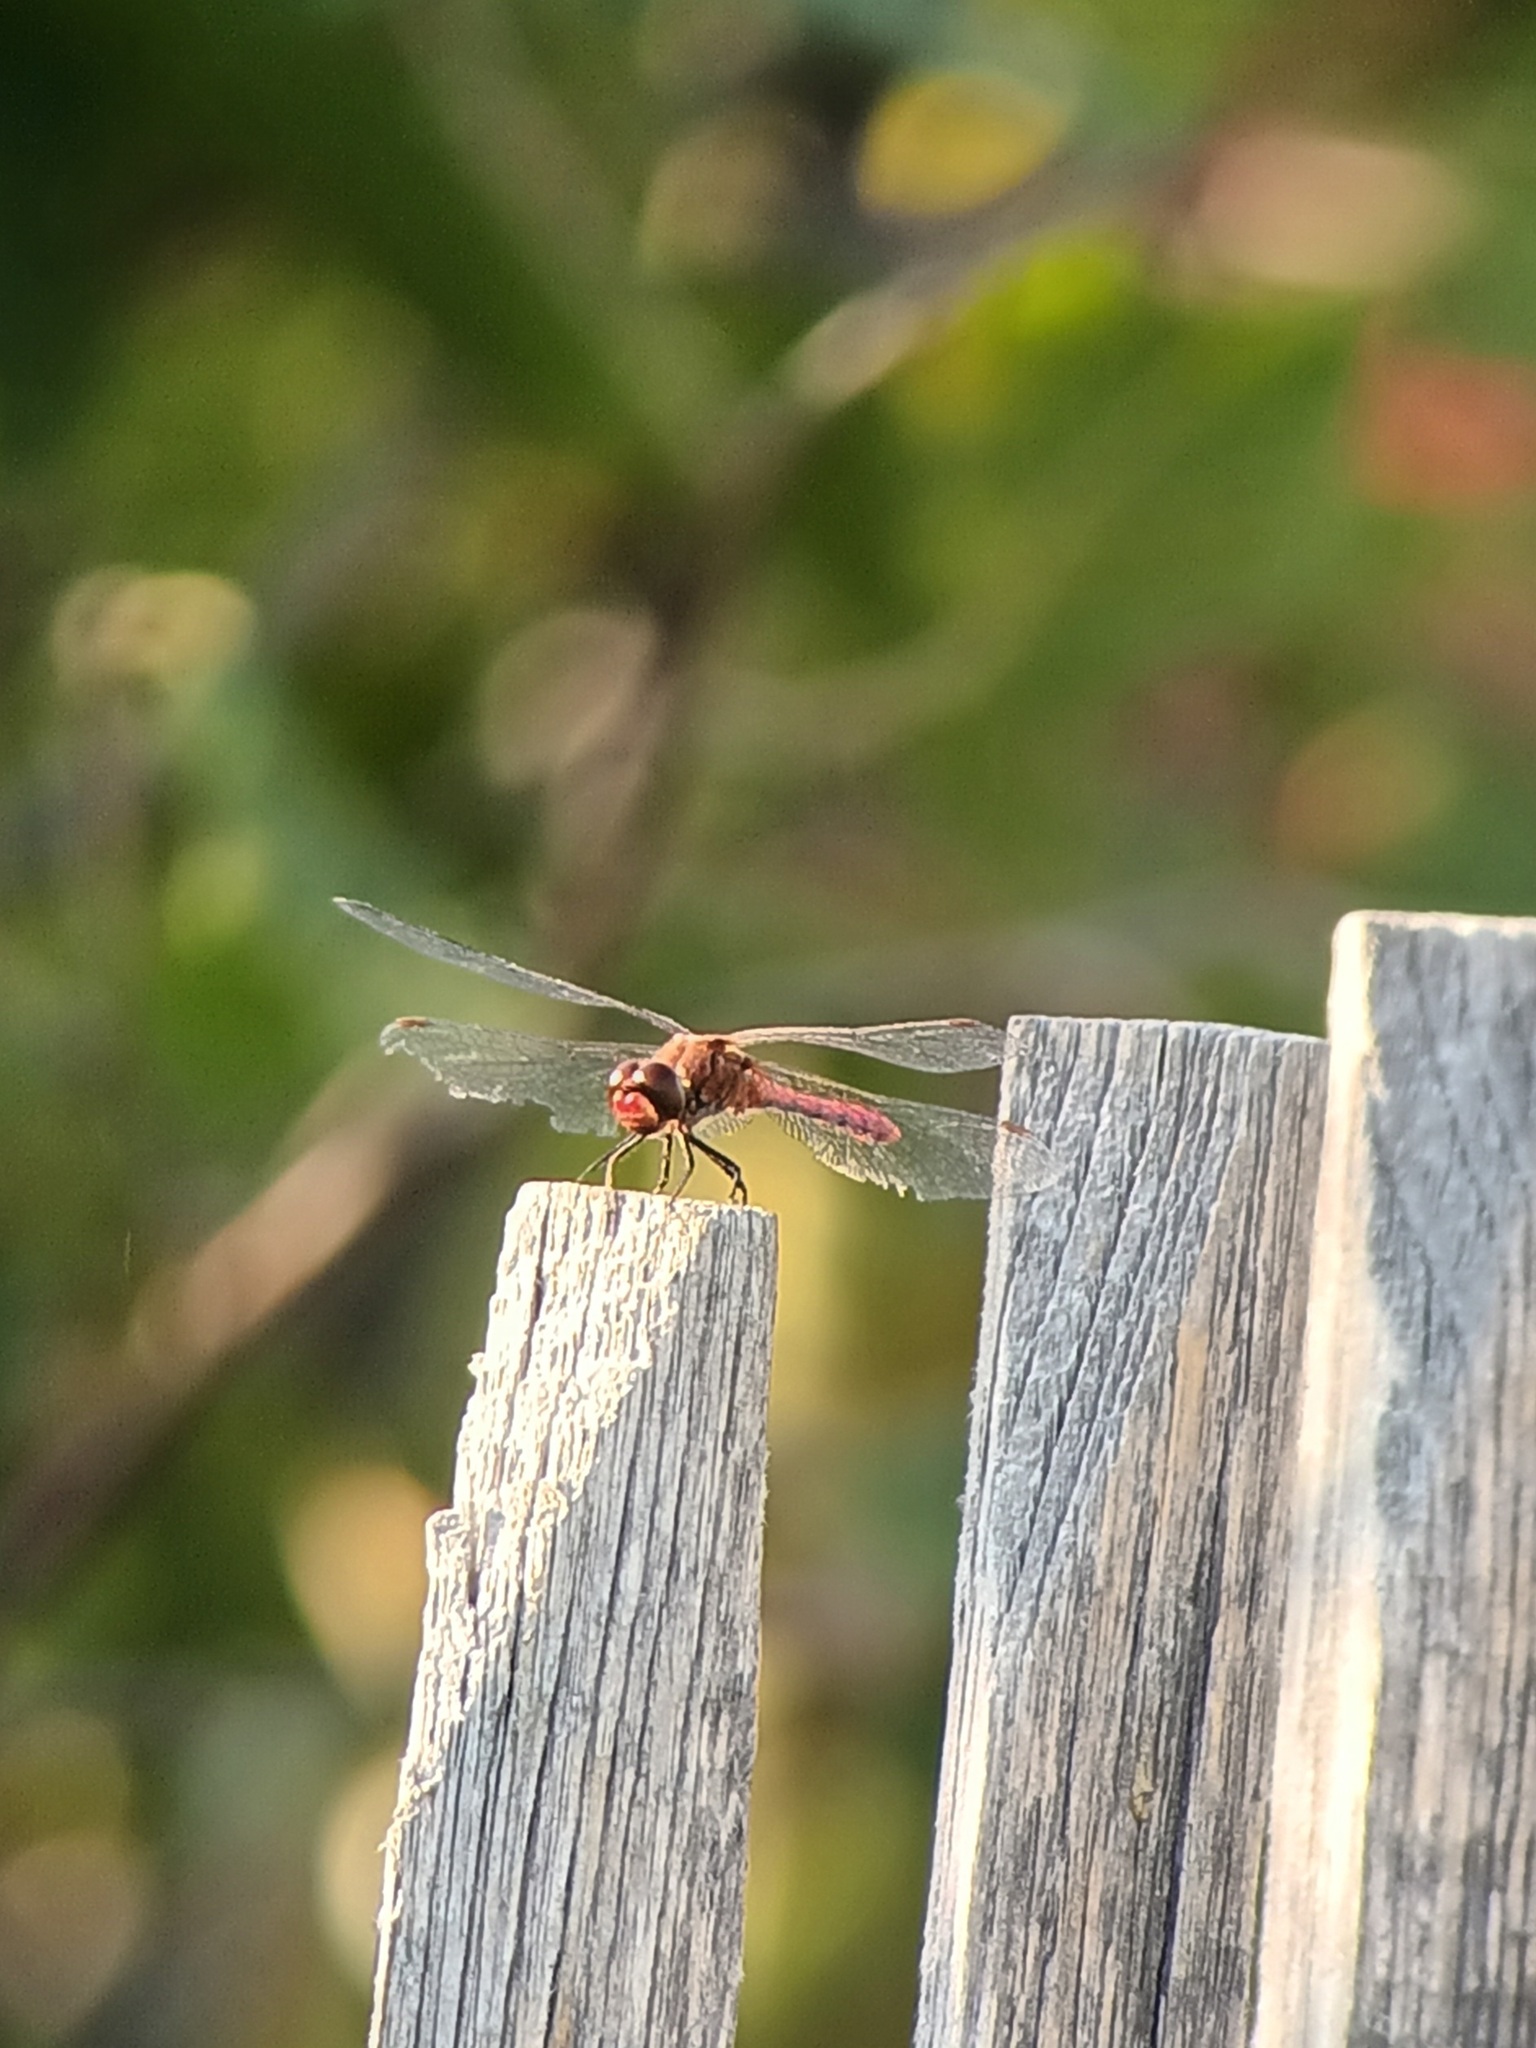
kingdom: Animalia
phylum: Arthropoda
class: Insecta
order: Odonata
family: Libellulidae
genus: Sympetrum
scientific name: Sympetrum sanguineum
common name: Ruddy darter
